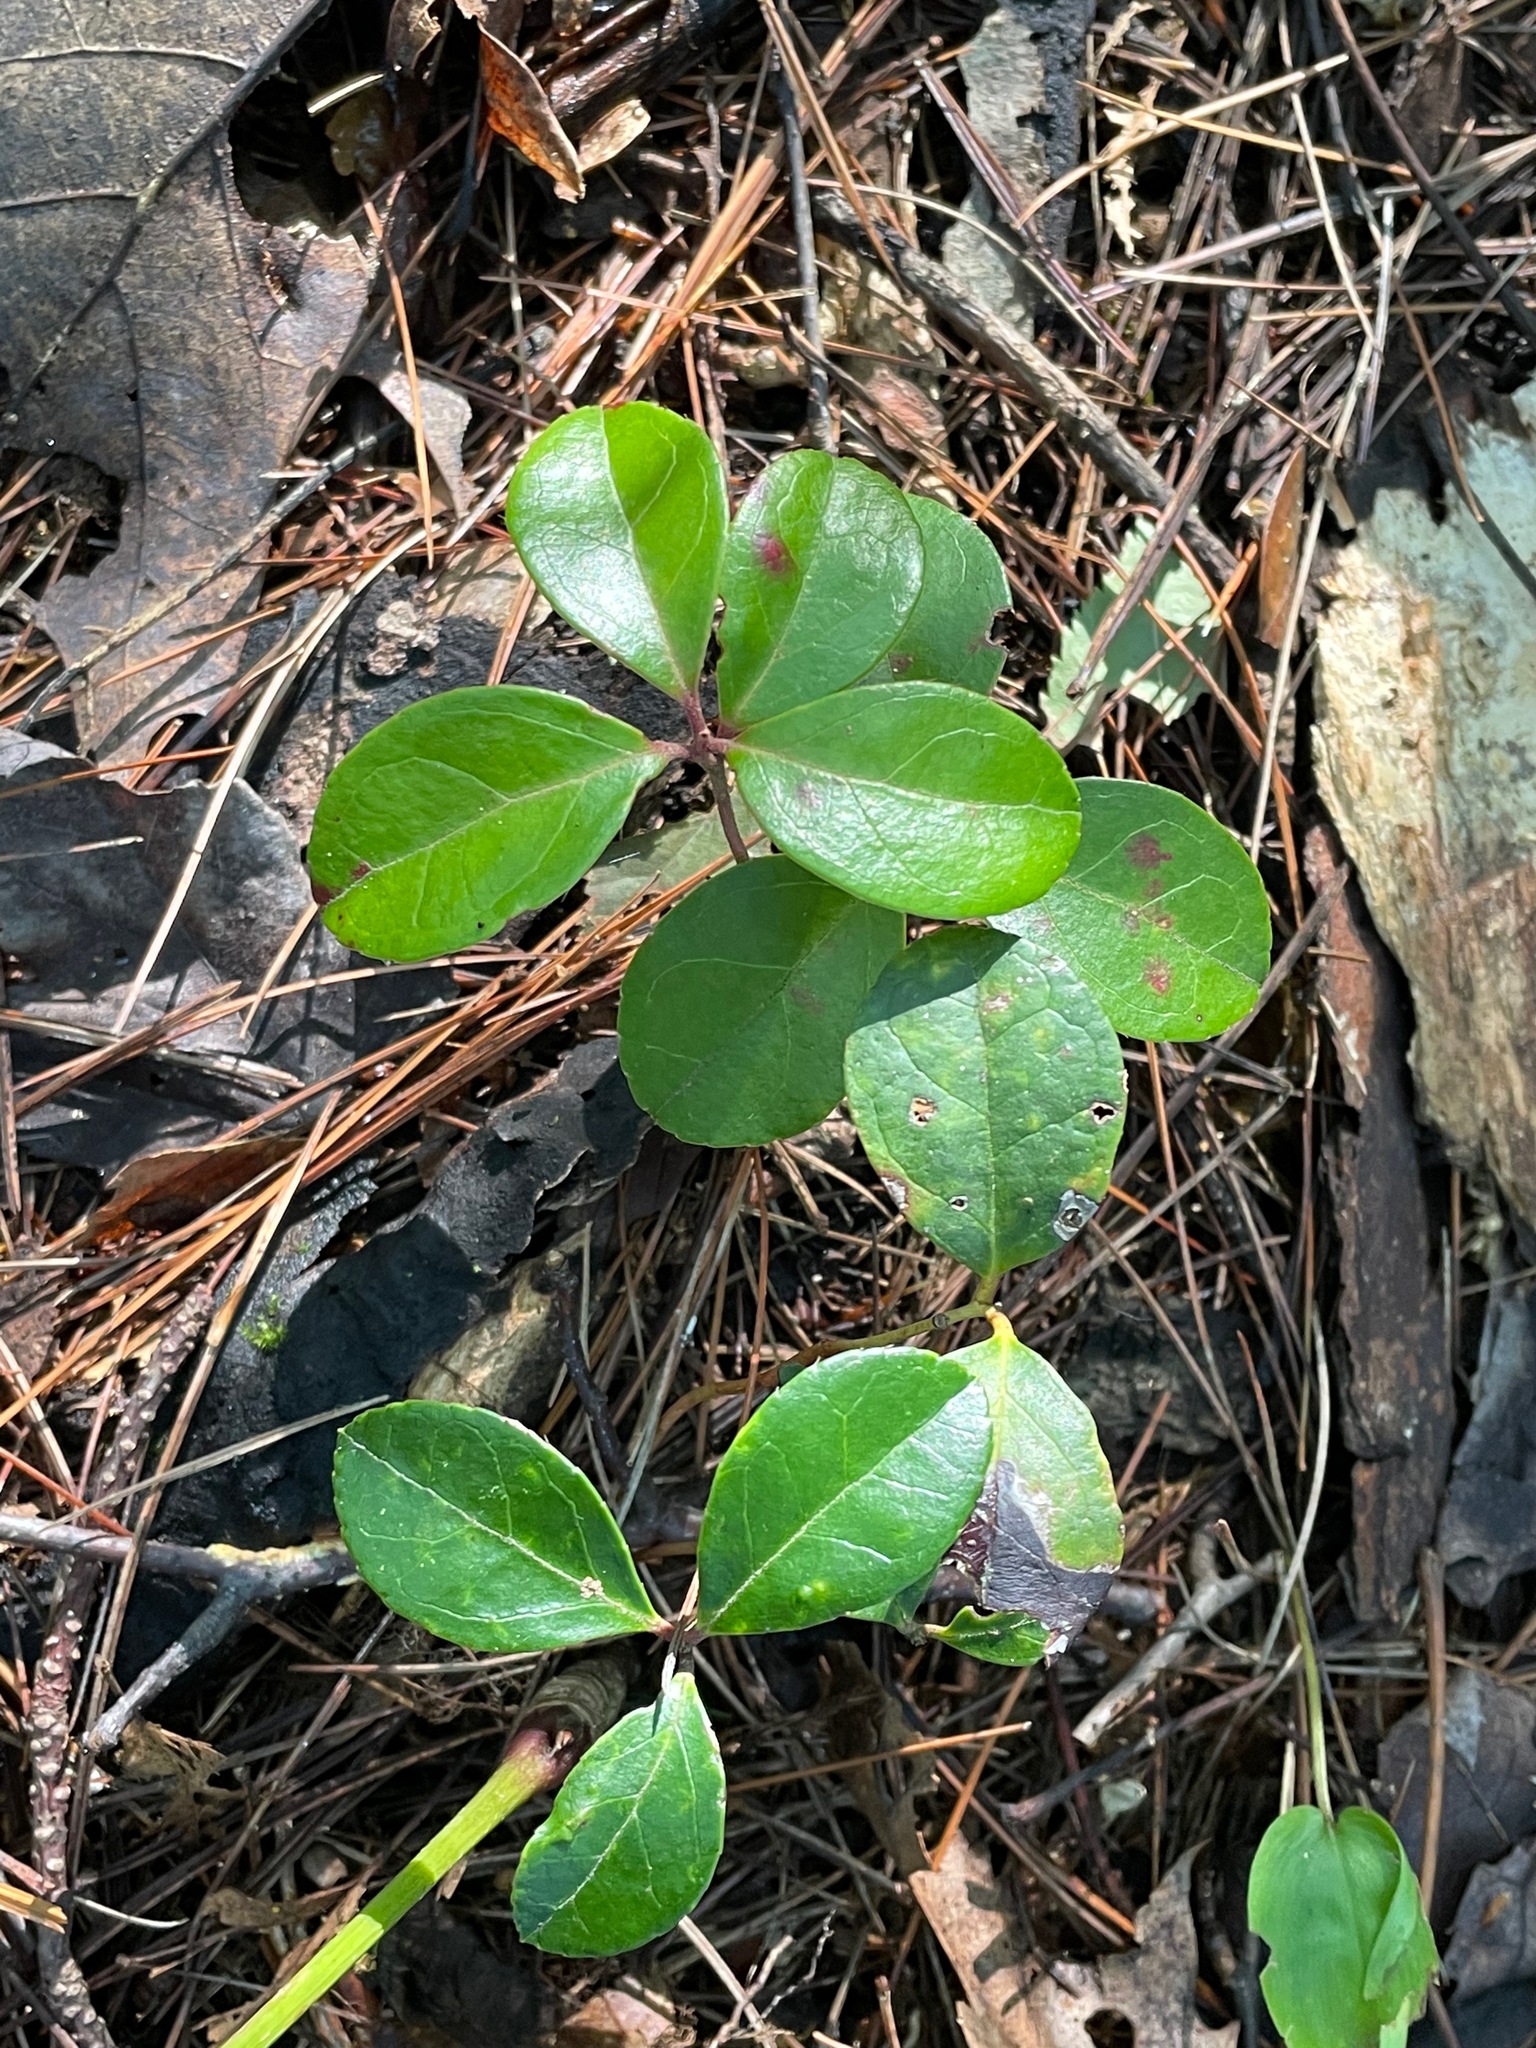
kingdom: Plantae
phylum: Tracheophyta
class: Magnoliopsida
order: Ericales
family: Ericaceae
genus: Gaultheria
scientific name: Gaultheria procumbens
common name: Checkerberry
